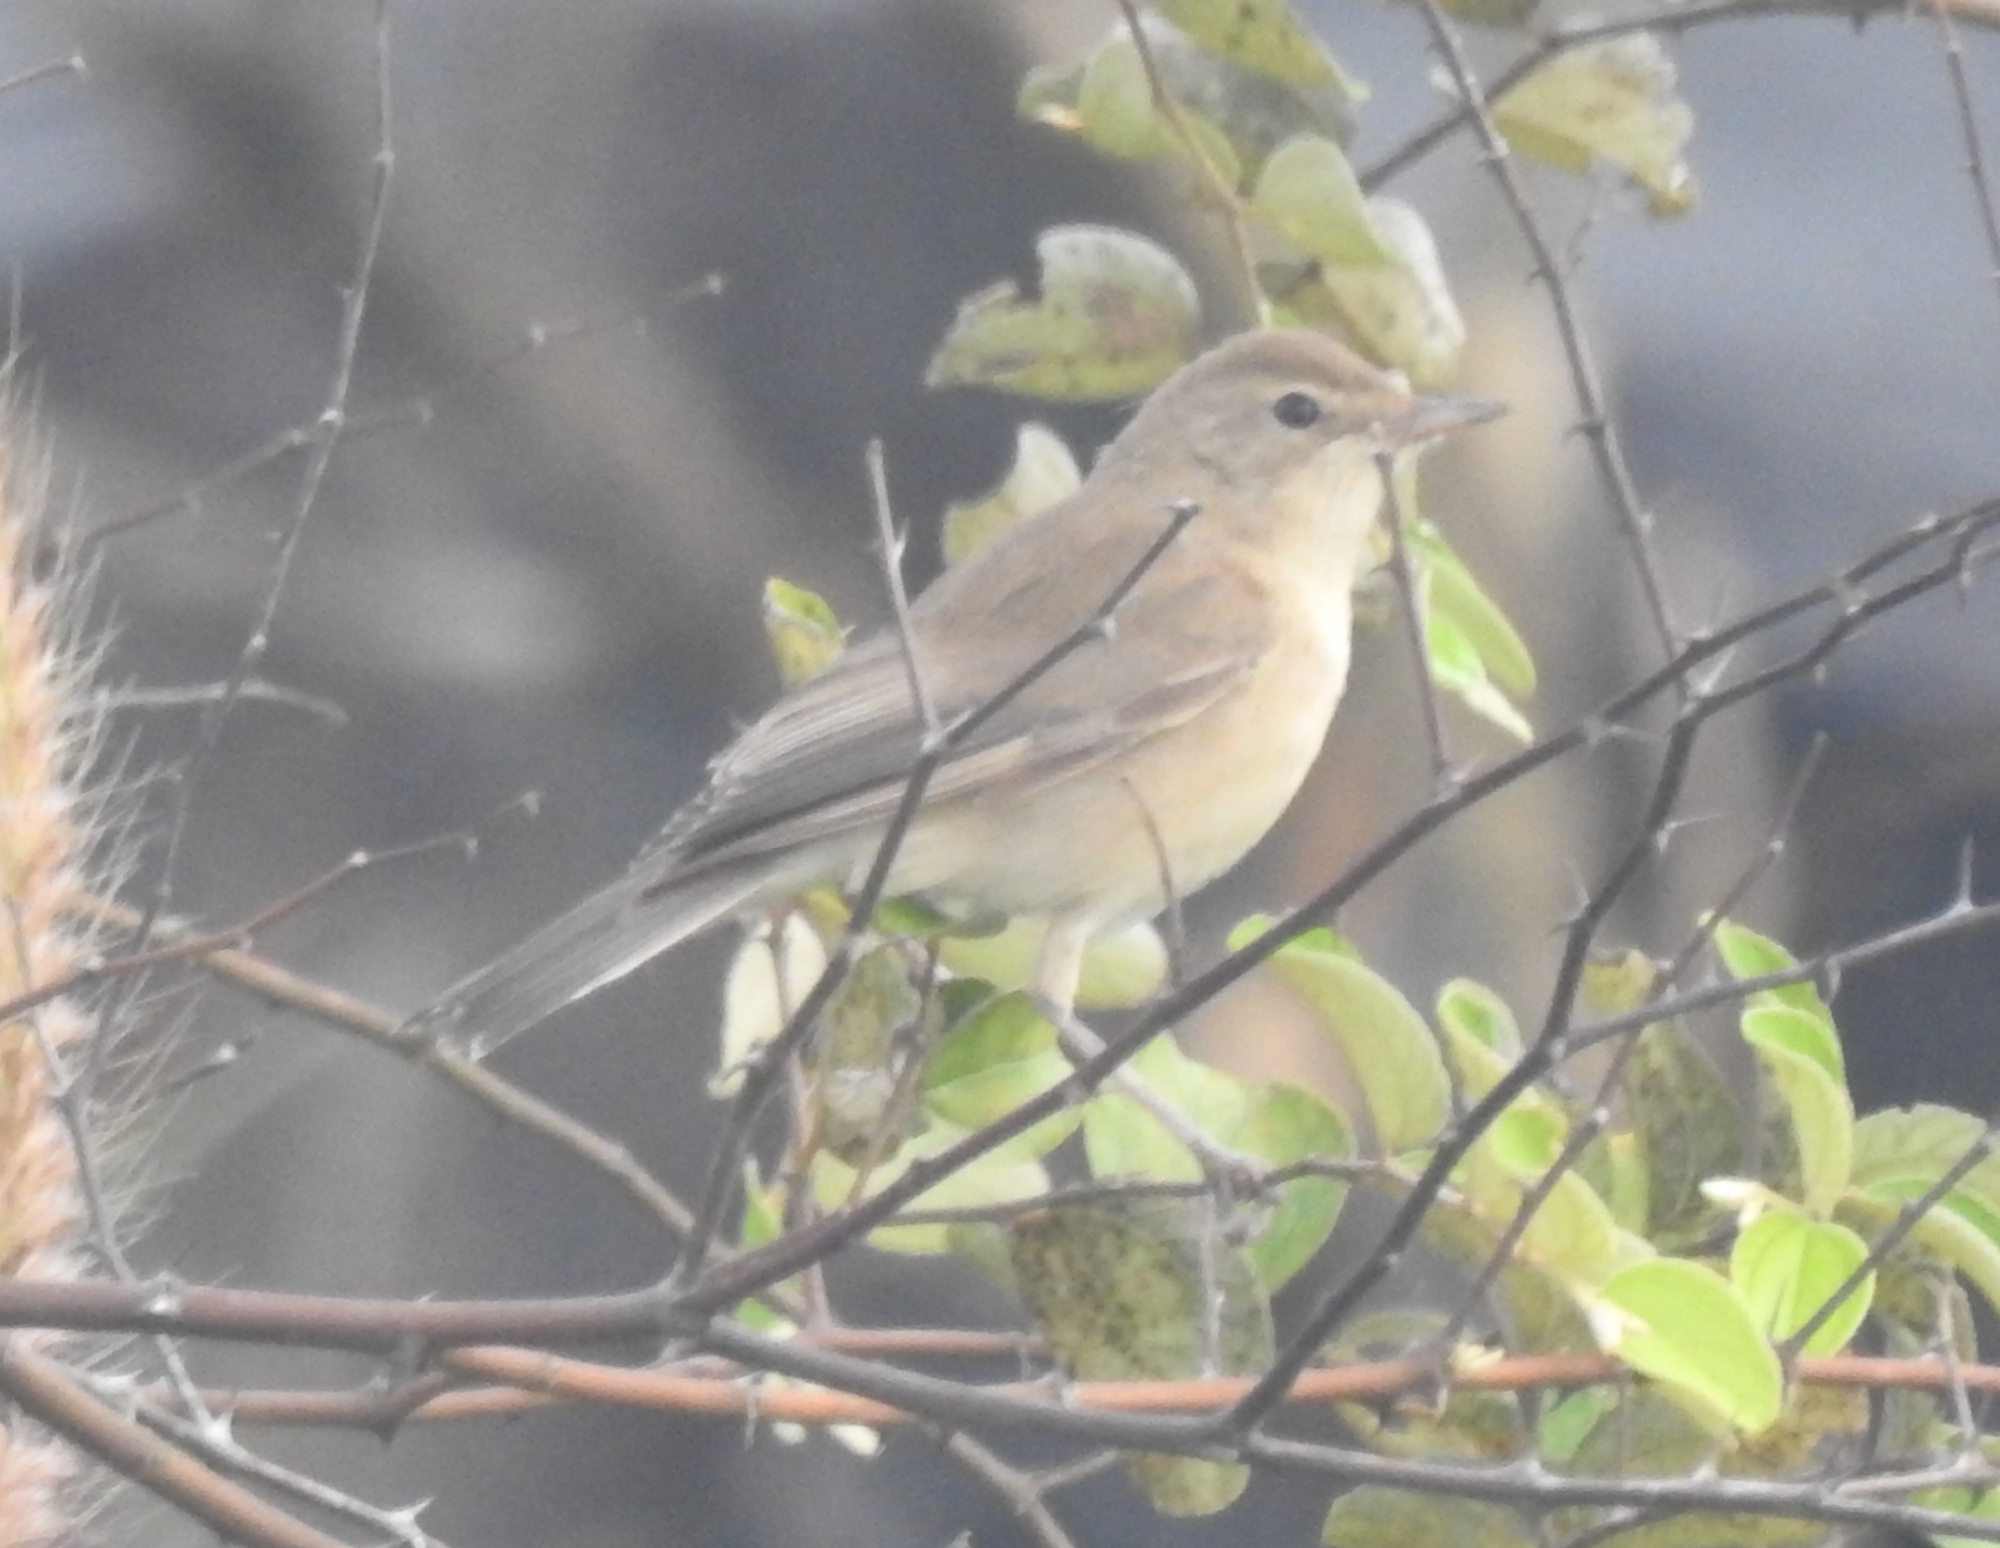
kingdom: Animalia
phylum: Chordata
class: Aves
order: Passeriformes
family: Acrocephalidae
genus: Iduna
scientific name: Iduna caligata
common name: Booted warbler
